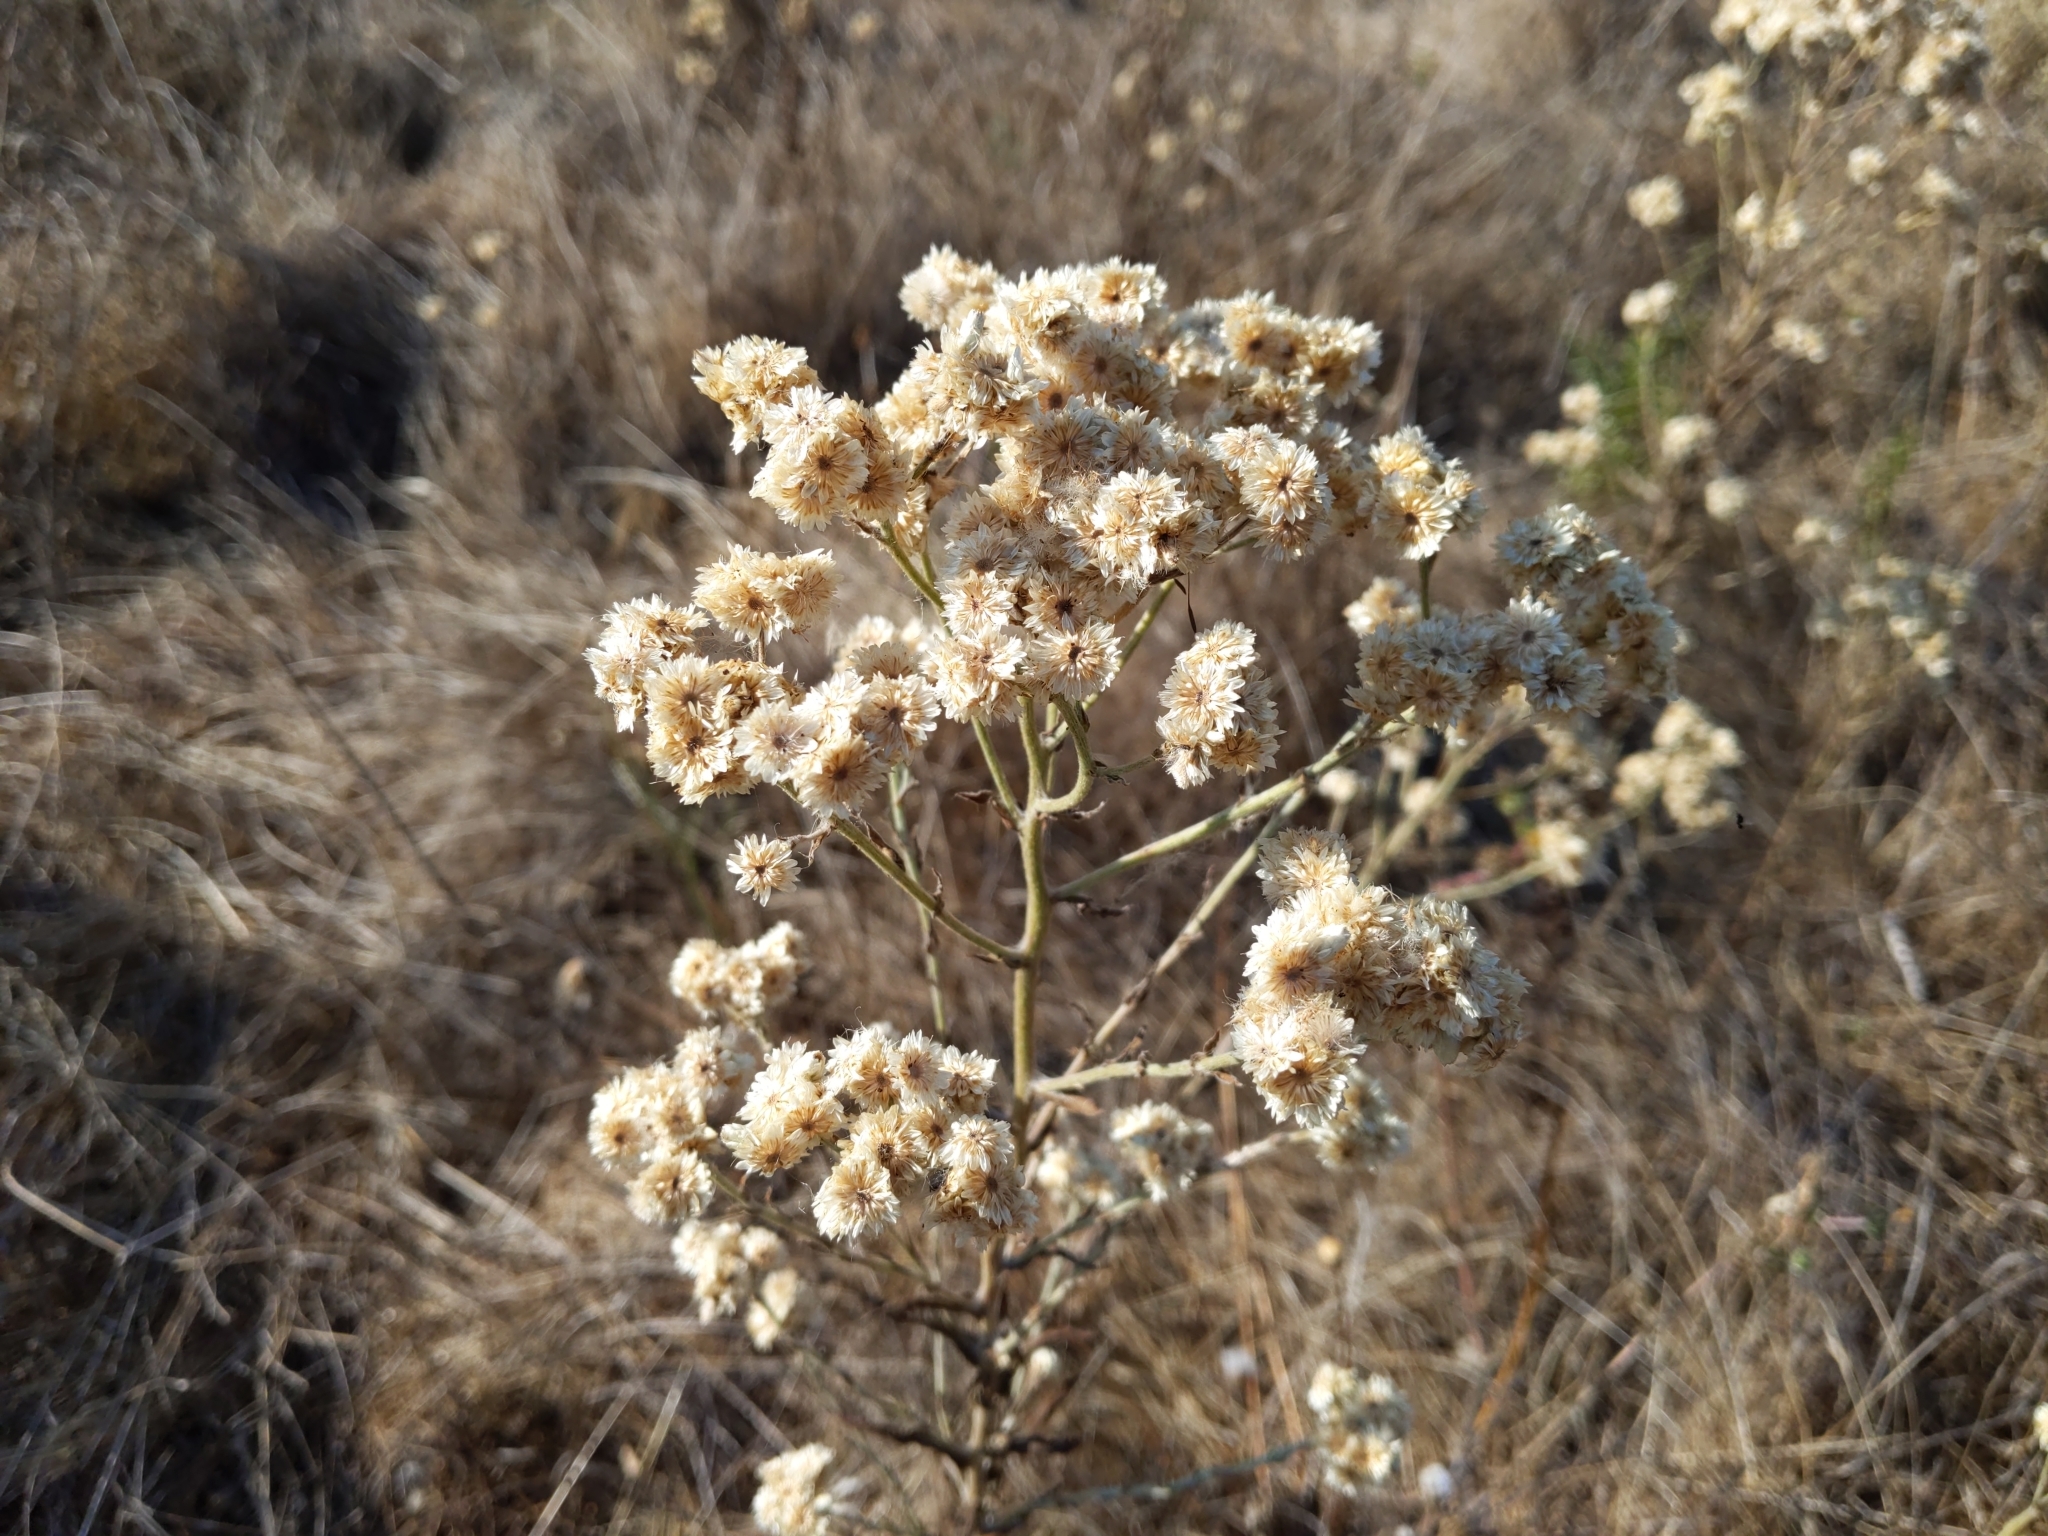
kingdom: Plantae
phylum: Tracheophyta
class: Magnoliopsida
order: Asterales
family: Asteraceae
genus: Pseudognaphalium
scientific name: Pseudognaphalium californicum
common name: California rabbit-tobacco
